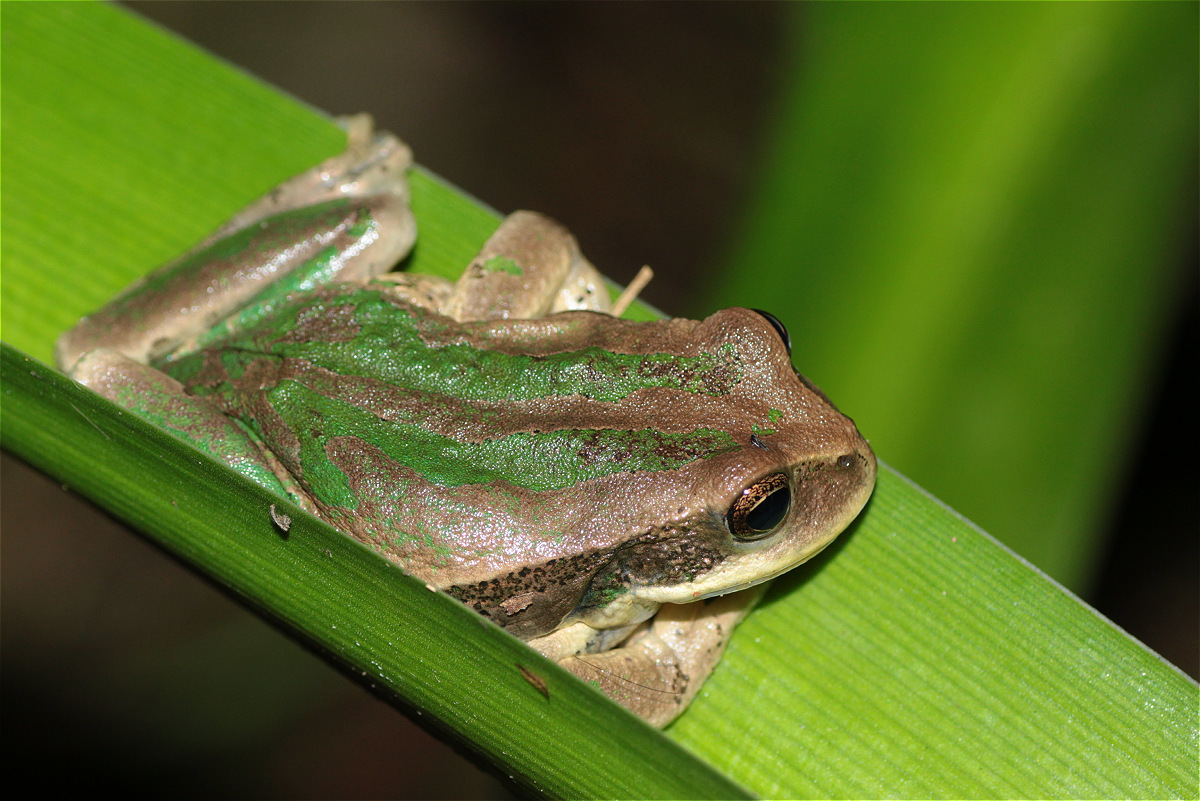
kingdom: Animalia
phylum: Chordata
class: Amphibia
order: Anura
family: Hemiphractidae
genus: Gastrotheca
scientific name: Gastrotheca cuencana
